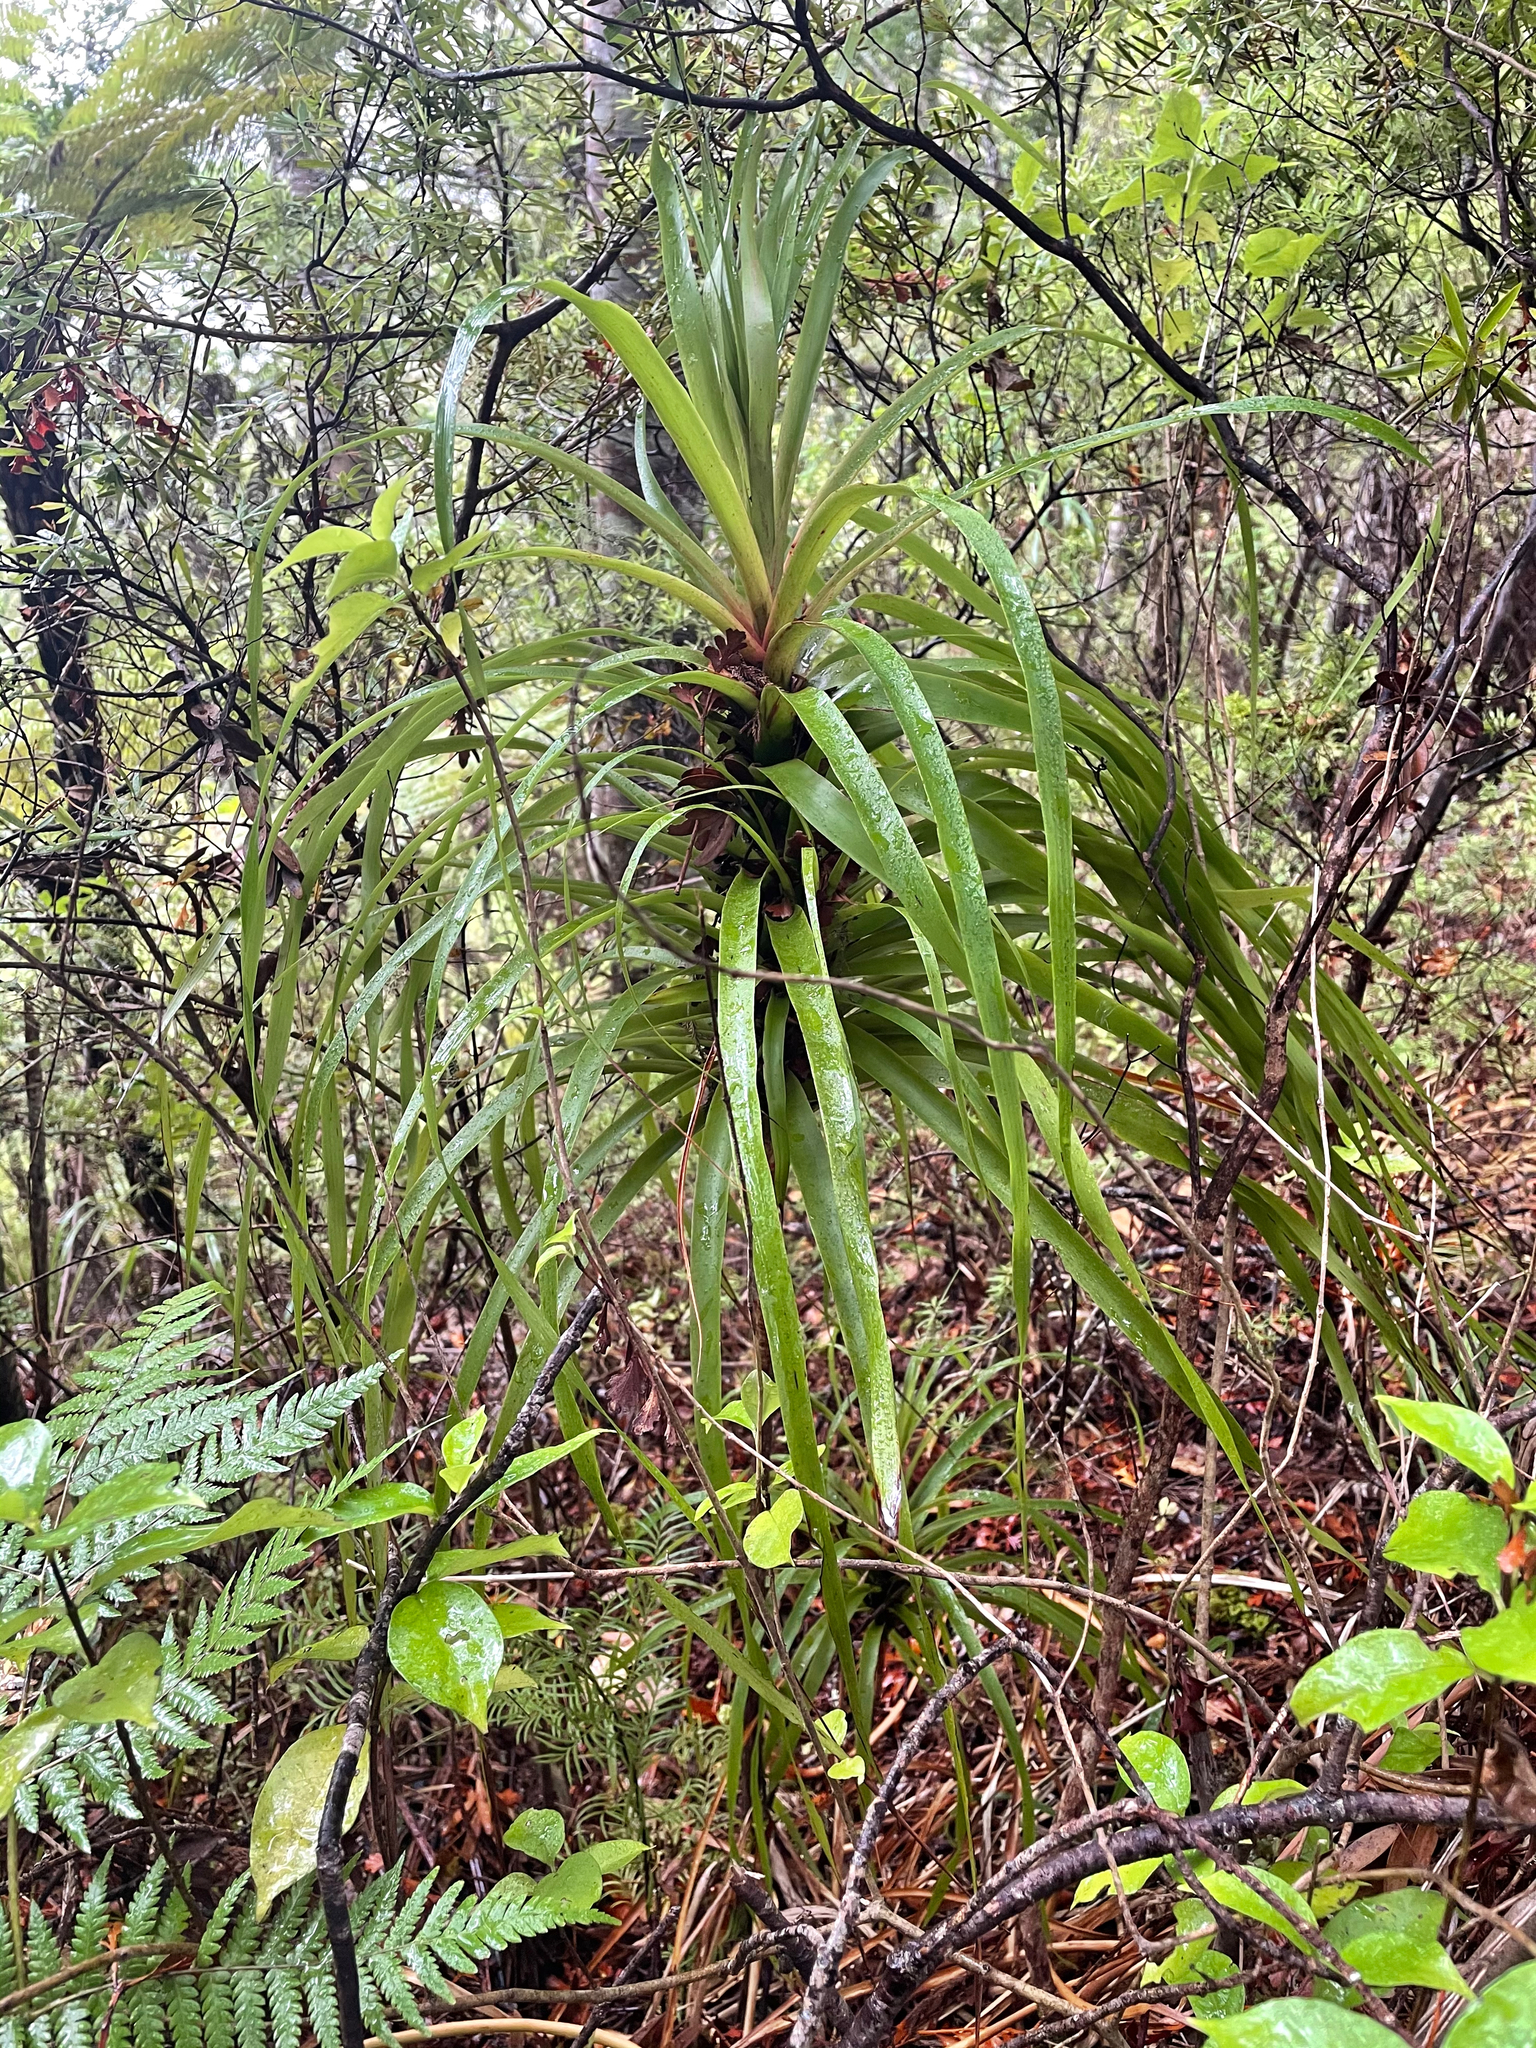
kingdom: Plantae
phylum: Tracheophyta
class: Magnoliopsida
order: Ericales
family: Ericaceae
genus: Dracophyllum
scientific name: Dracophyllum latifolium
